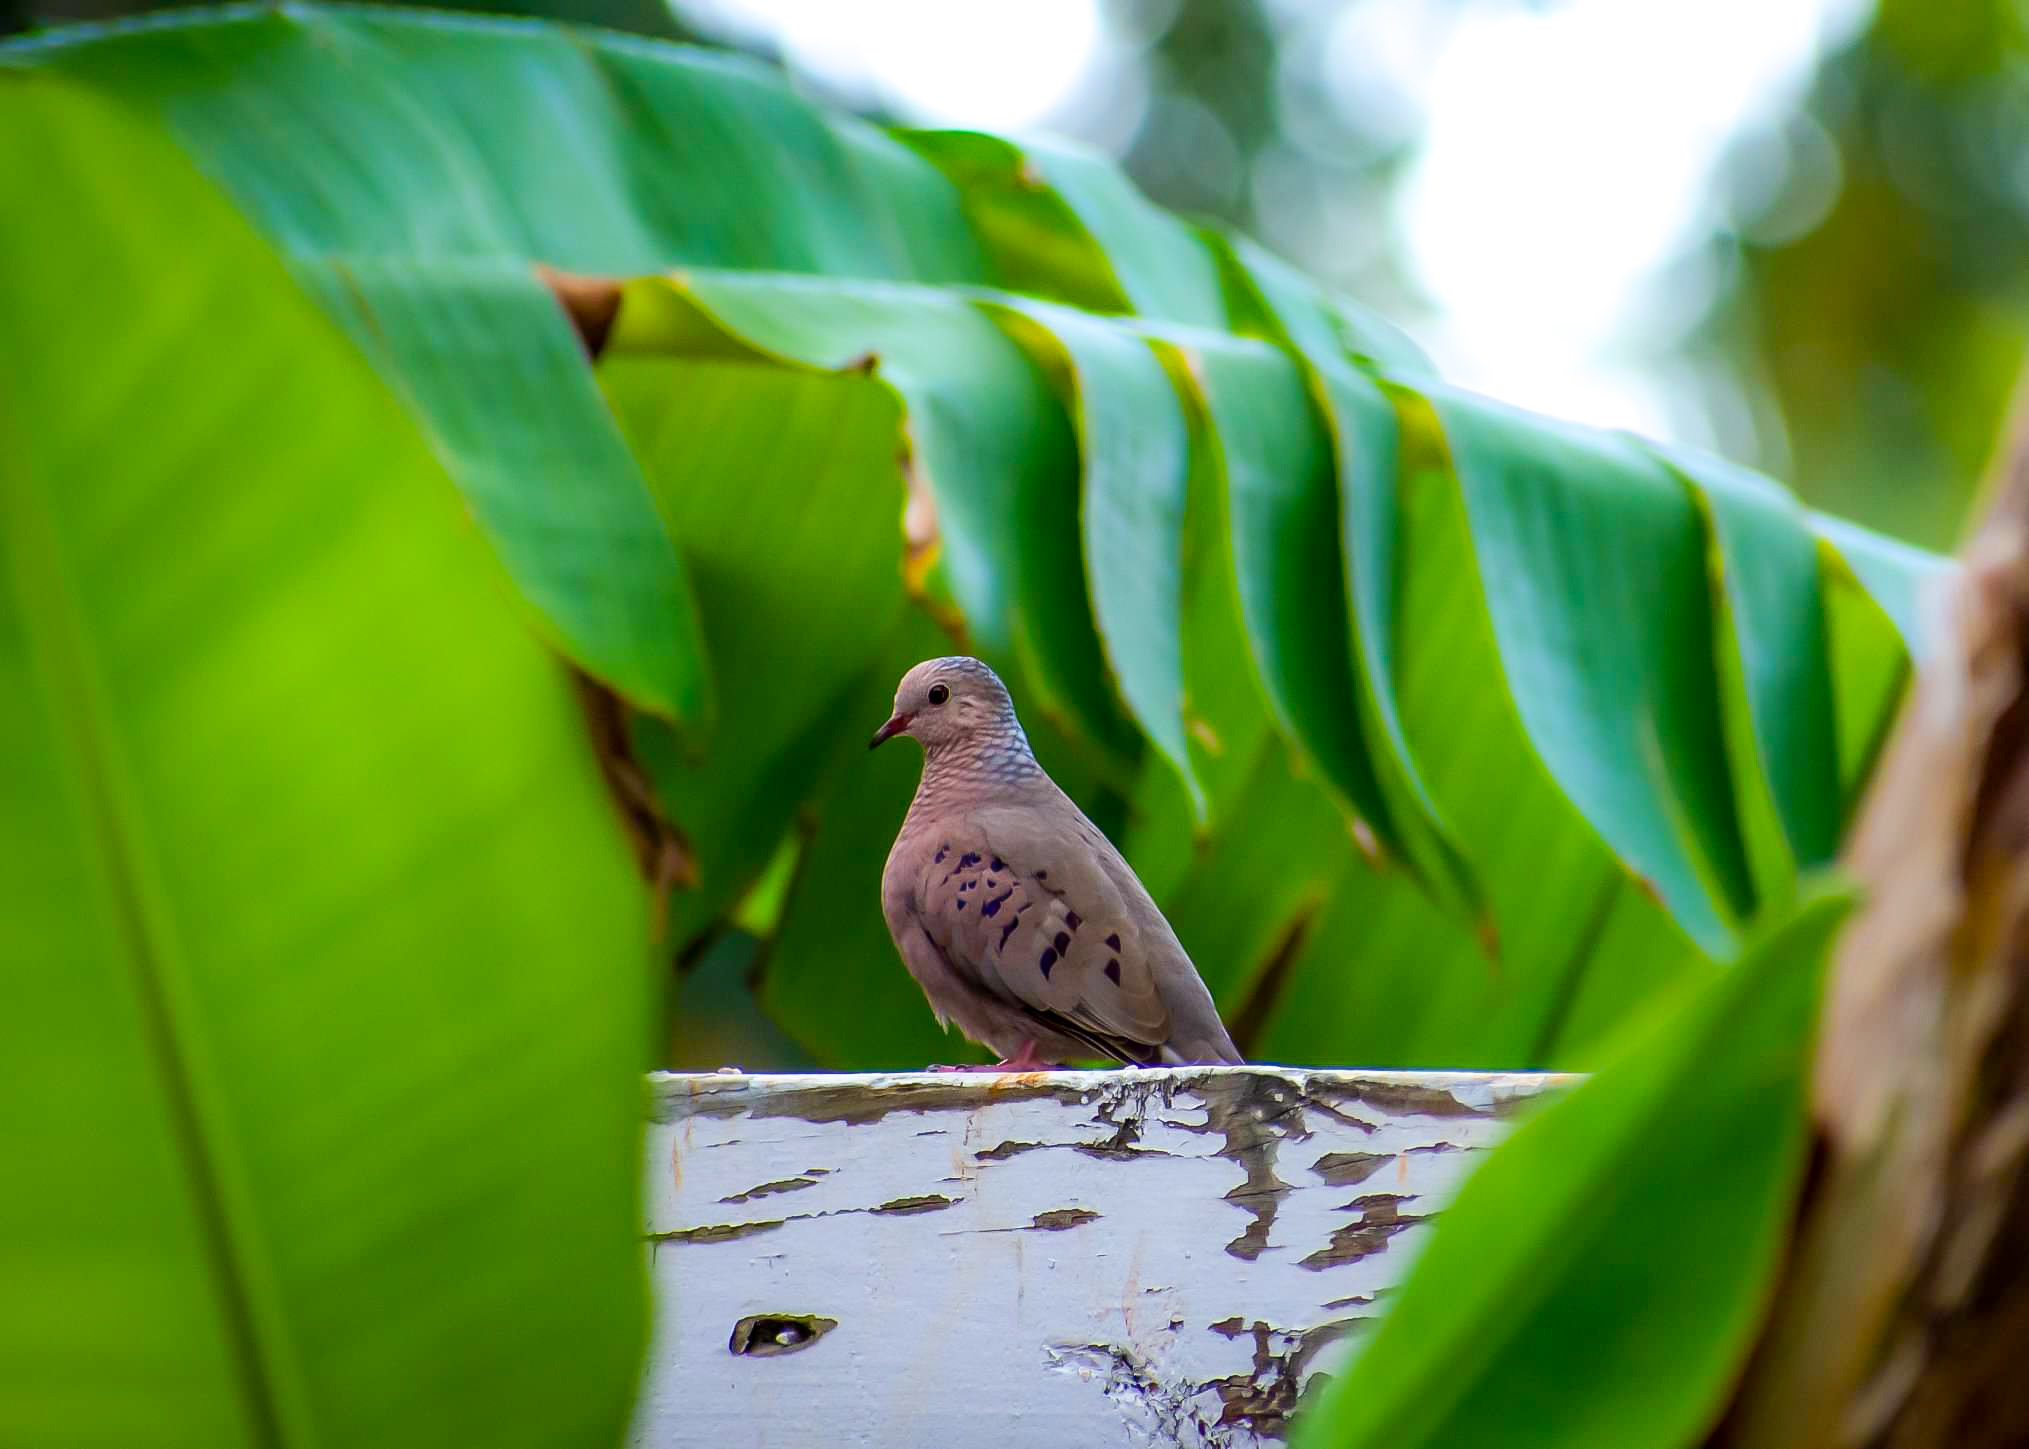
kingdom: Animalia
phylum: Chordata
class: Aves
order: Columbiformes
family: Columbidae
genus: Columbina
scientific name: Columbina passerina
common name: Common ground-dove
